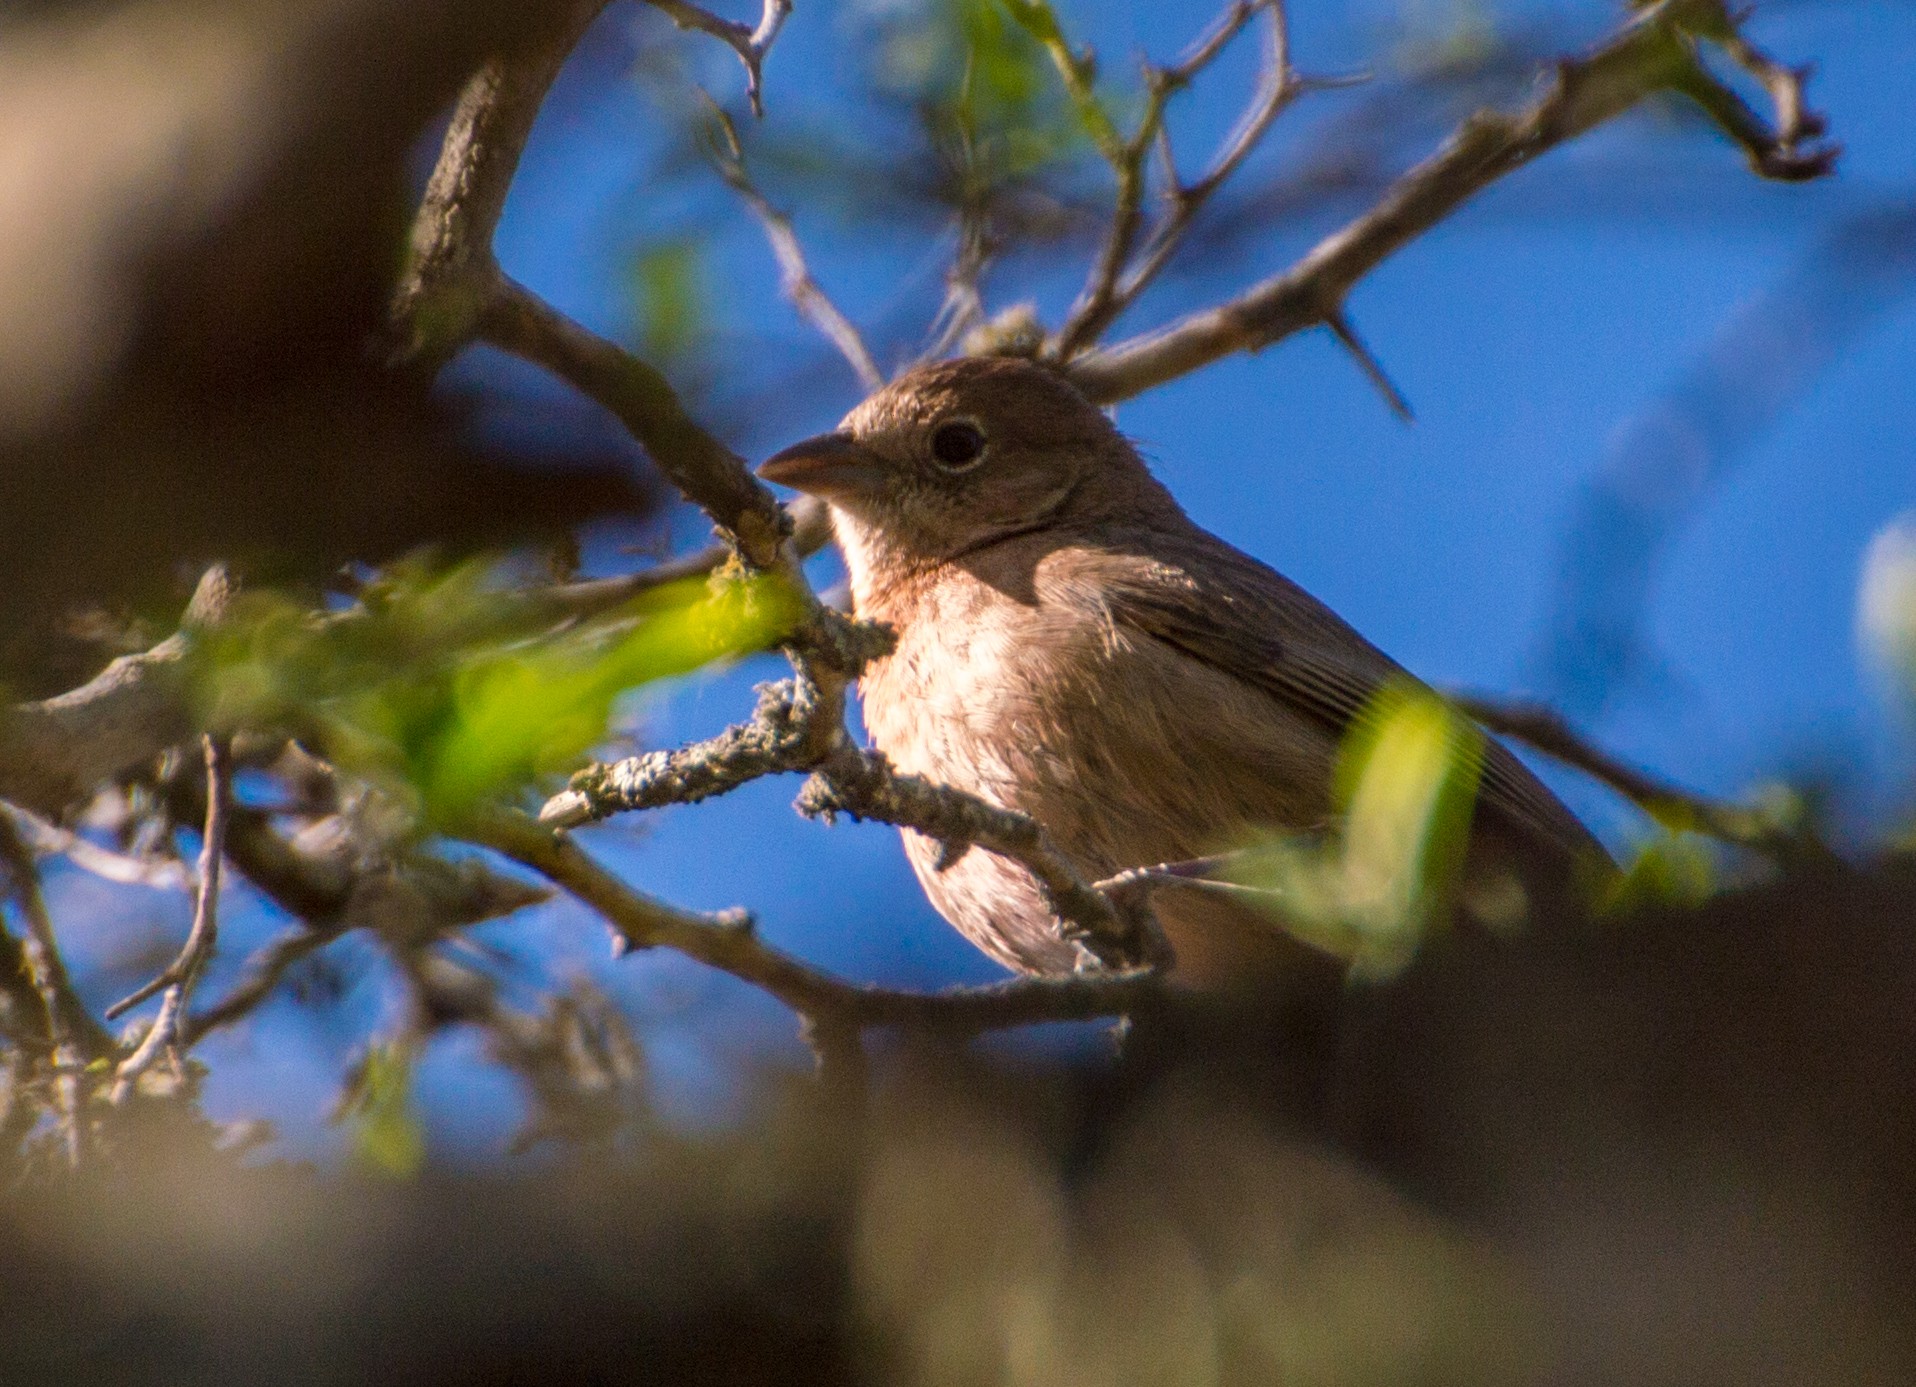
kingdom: Animalia
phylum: Chordata
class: Aves
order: Passeriformes
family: Thraupidae
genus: Coryphospingus
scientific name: Coryphospingus cucullatus
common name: Red pileated finch
